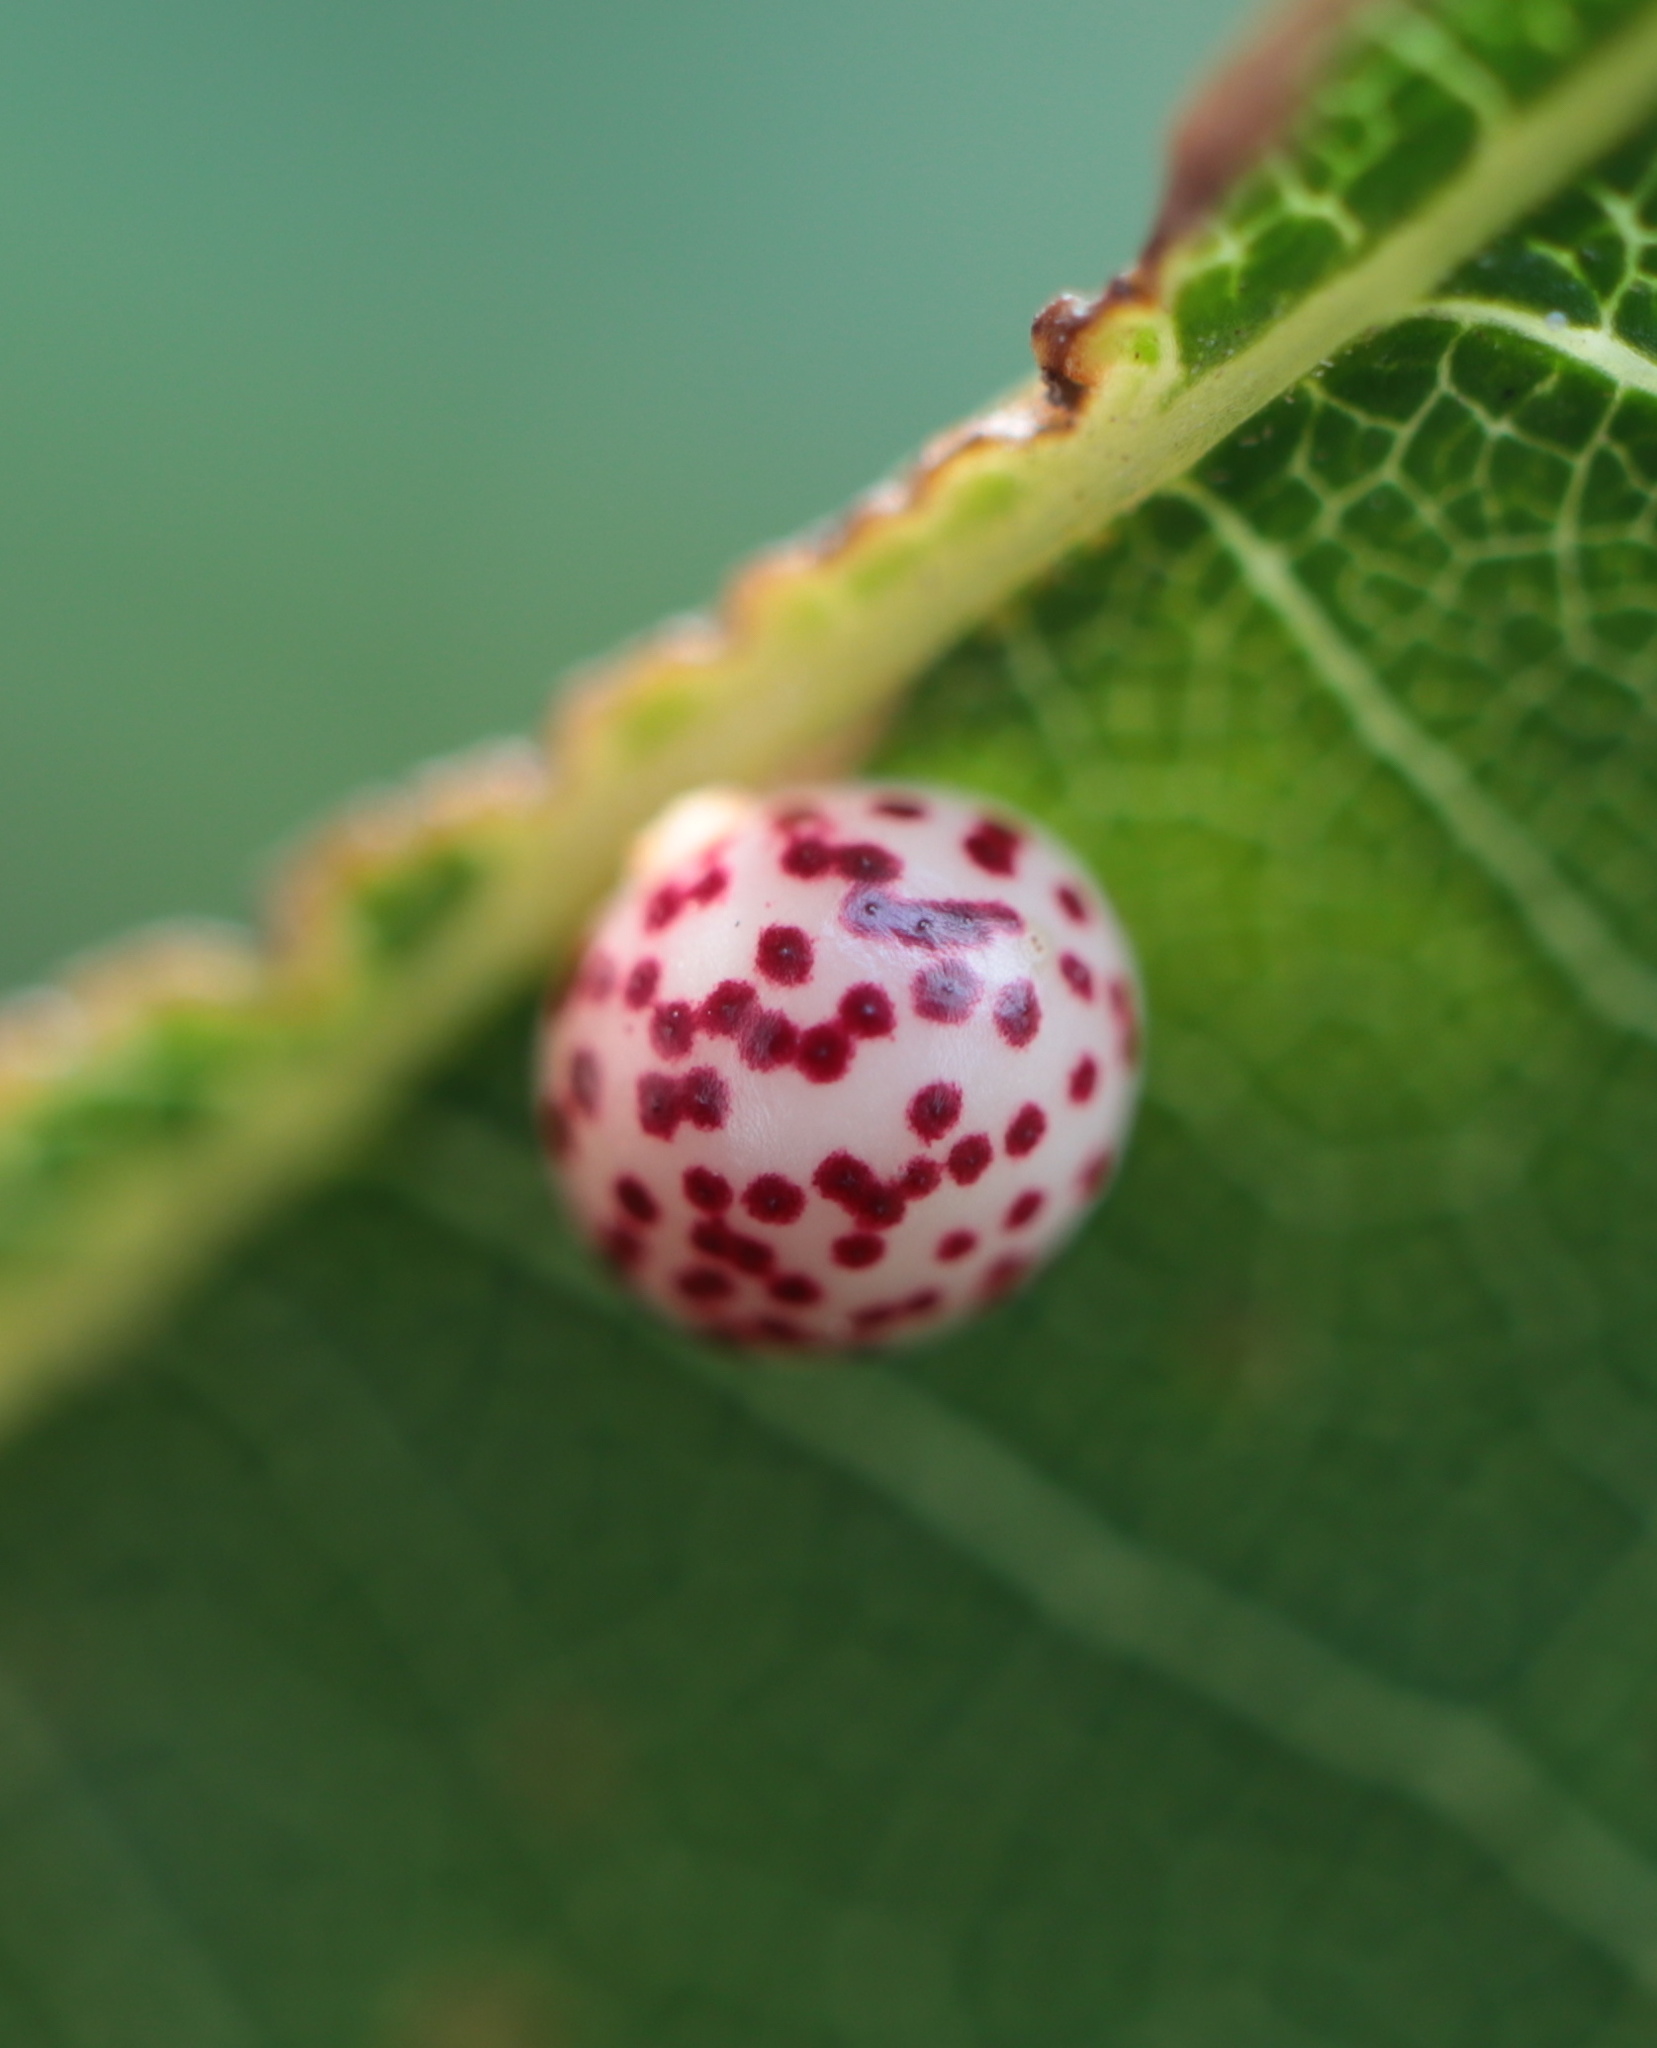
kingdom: Animalia
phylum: Arthropoda
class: Insecta
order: Hymenoptera
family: Cynipidae
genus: Zopheroteras
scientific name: Zopheroteras
